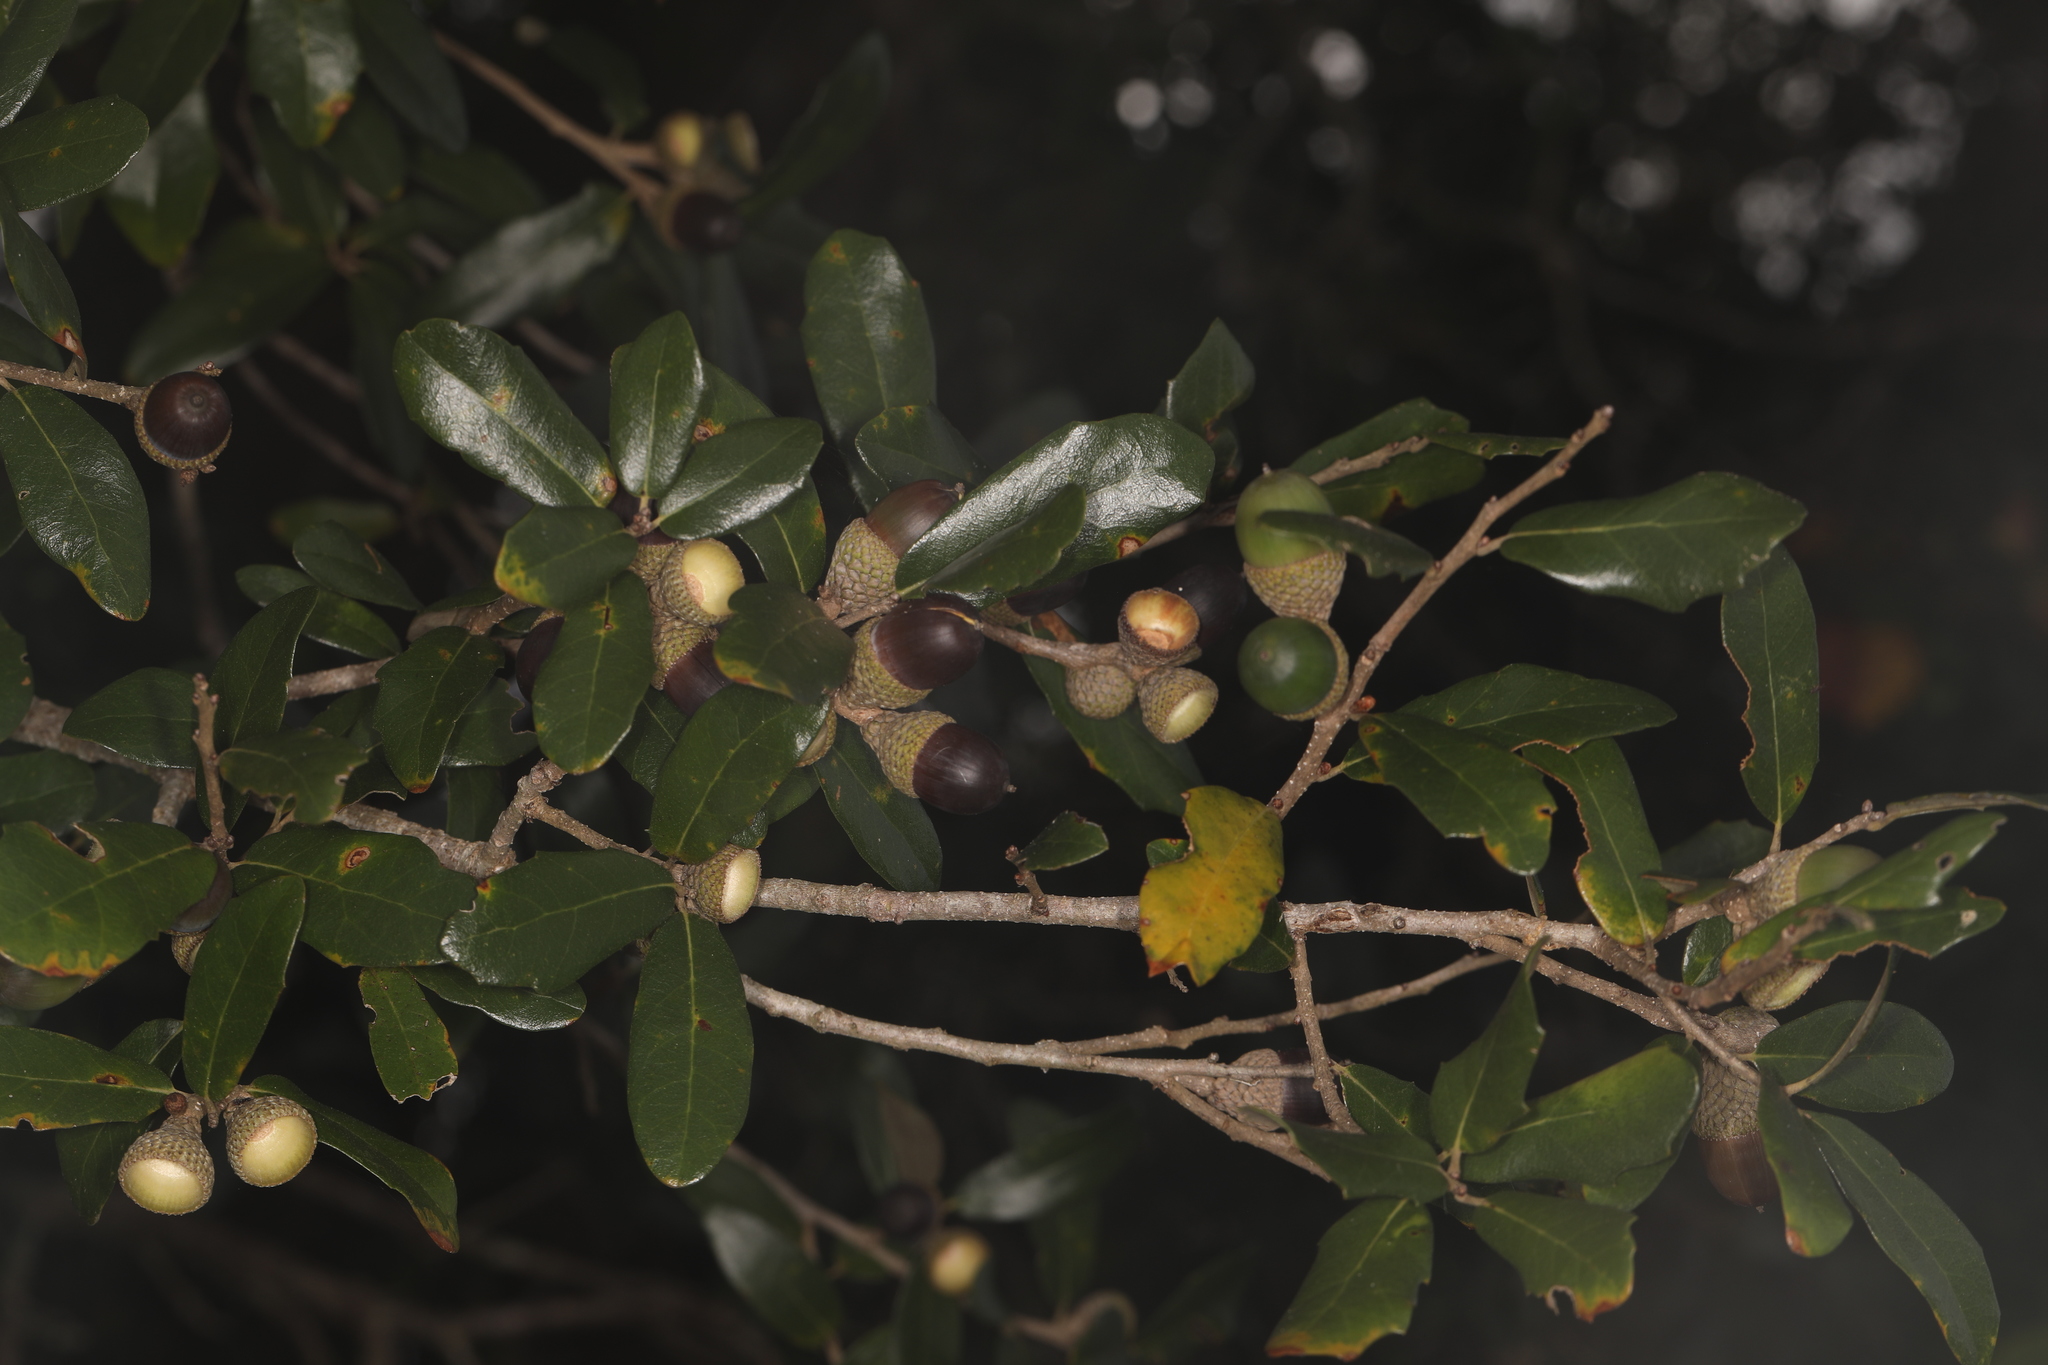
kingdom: Plantae
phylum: Tracheophyta
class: Magnoliopsida
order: Fagales
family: Fagaceae
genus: Quercus
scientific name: Quercus virginiana
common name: Southern live oak
